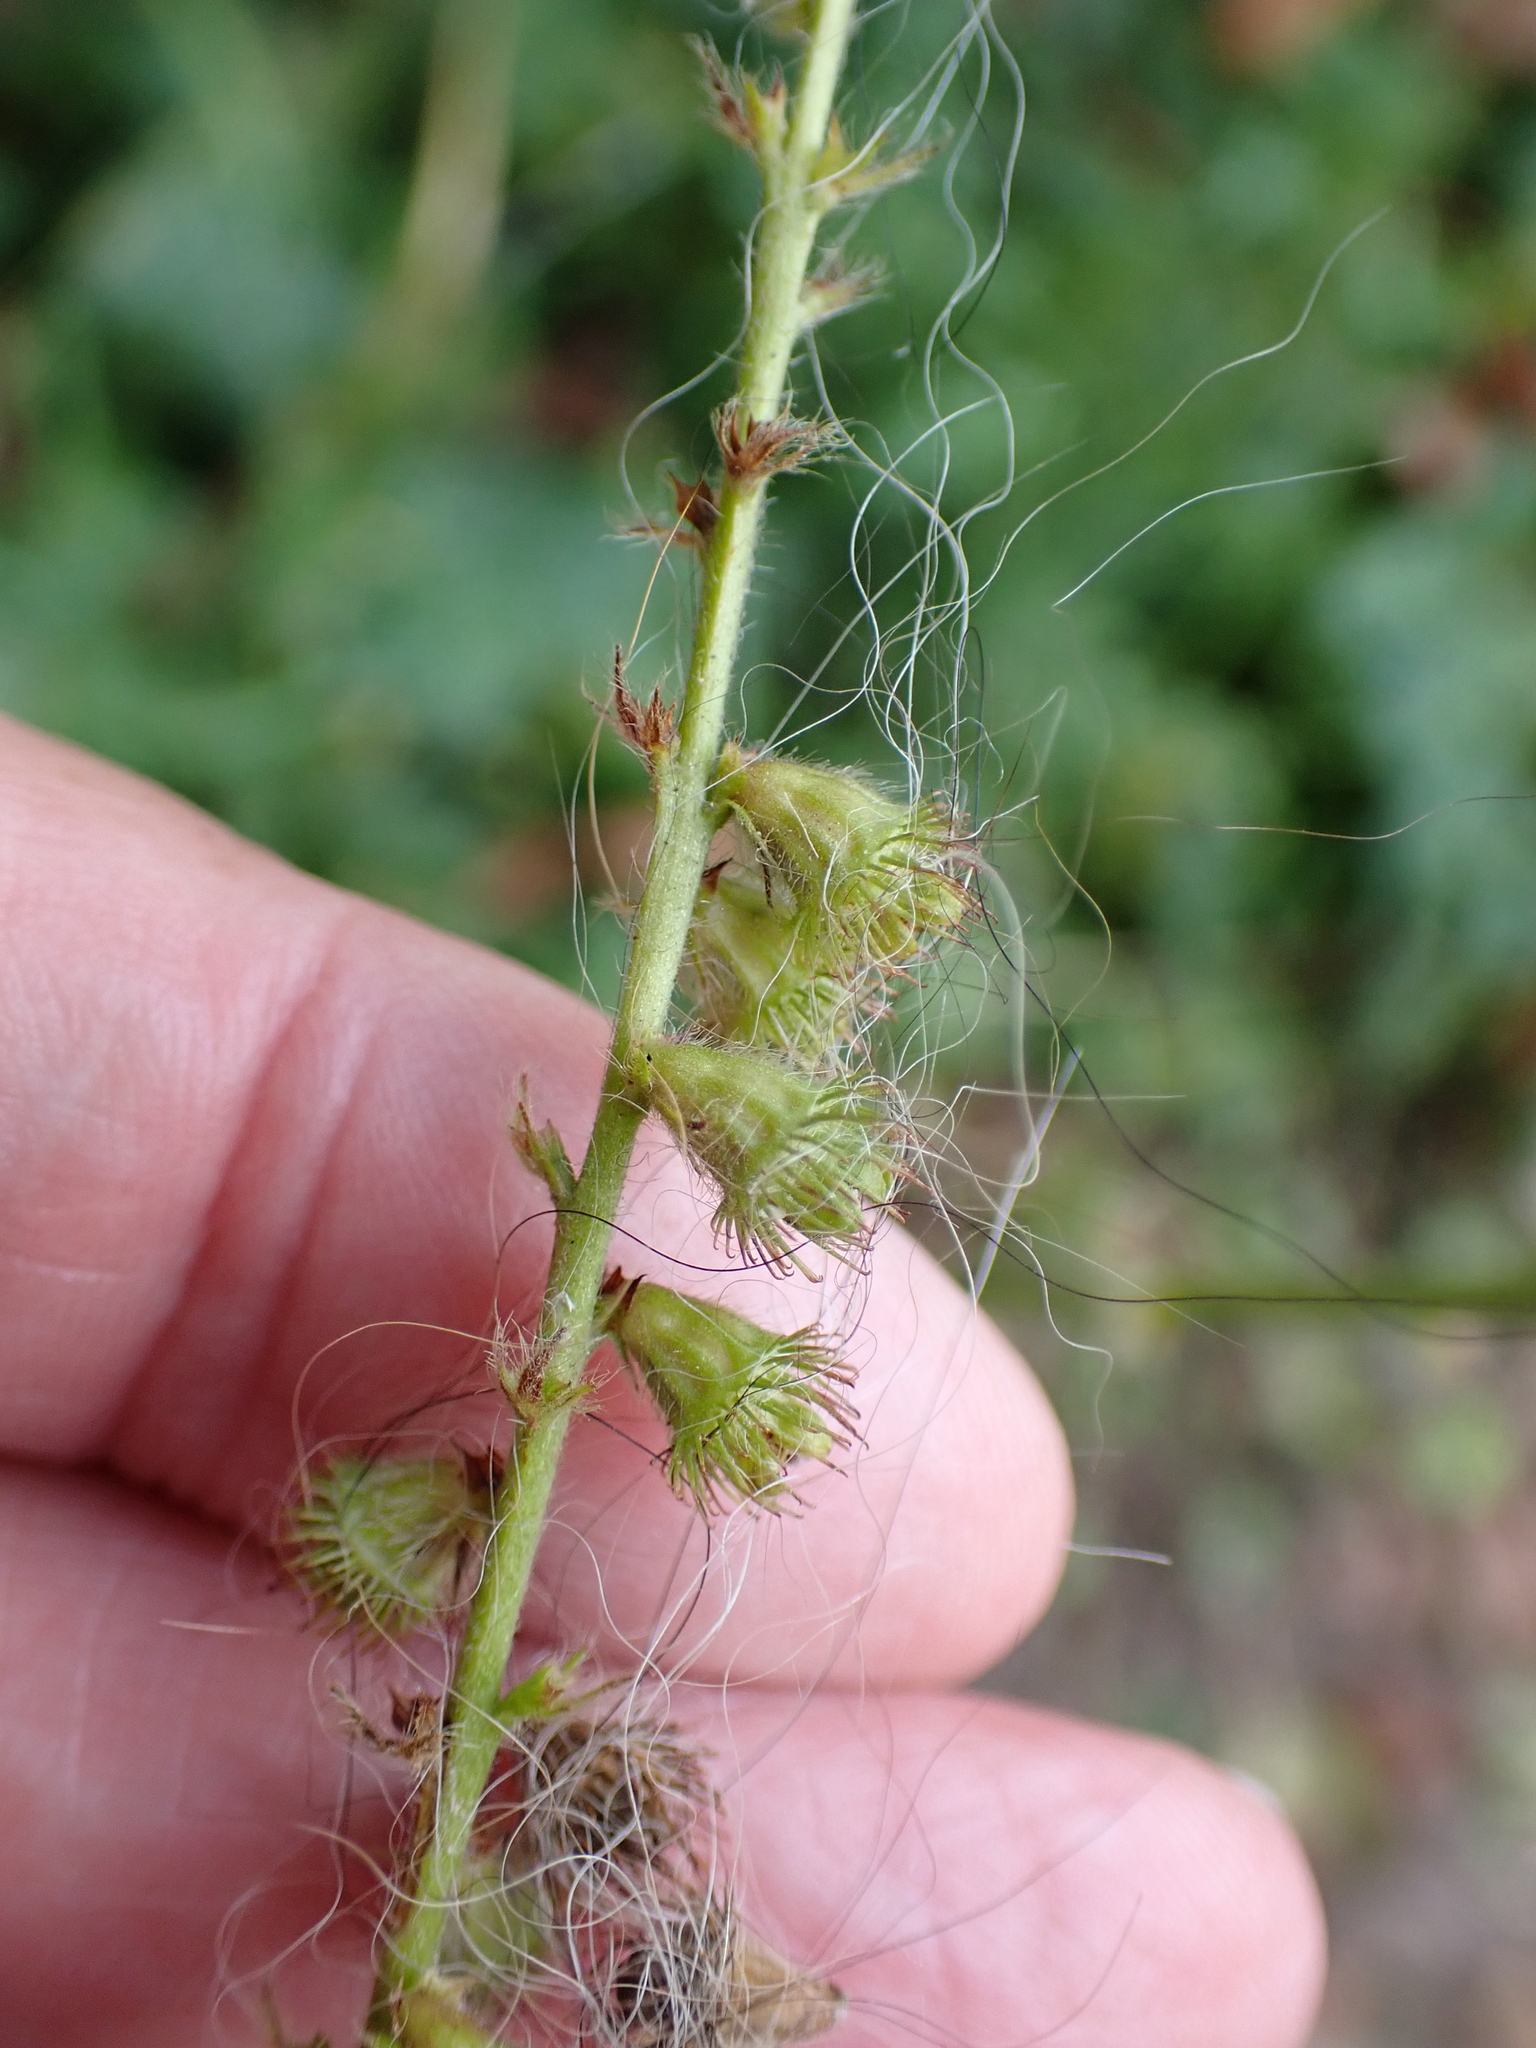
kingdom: Plantae
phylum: Tracheophyta
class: Magnoliopsida
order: Rosales
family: Rosaceae
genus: Agrimonia
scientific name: Agrimonia eupatoria
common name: Agrimony
